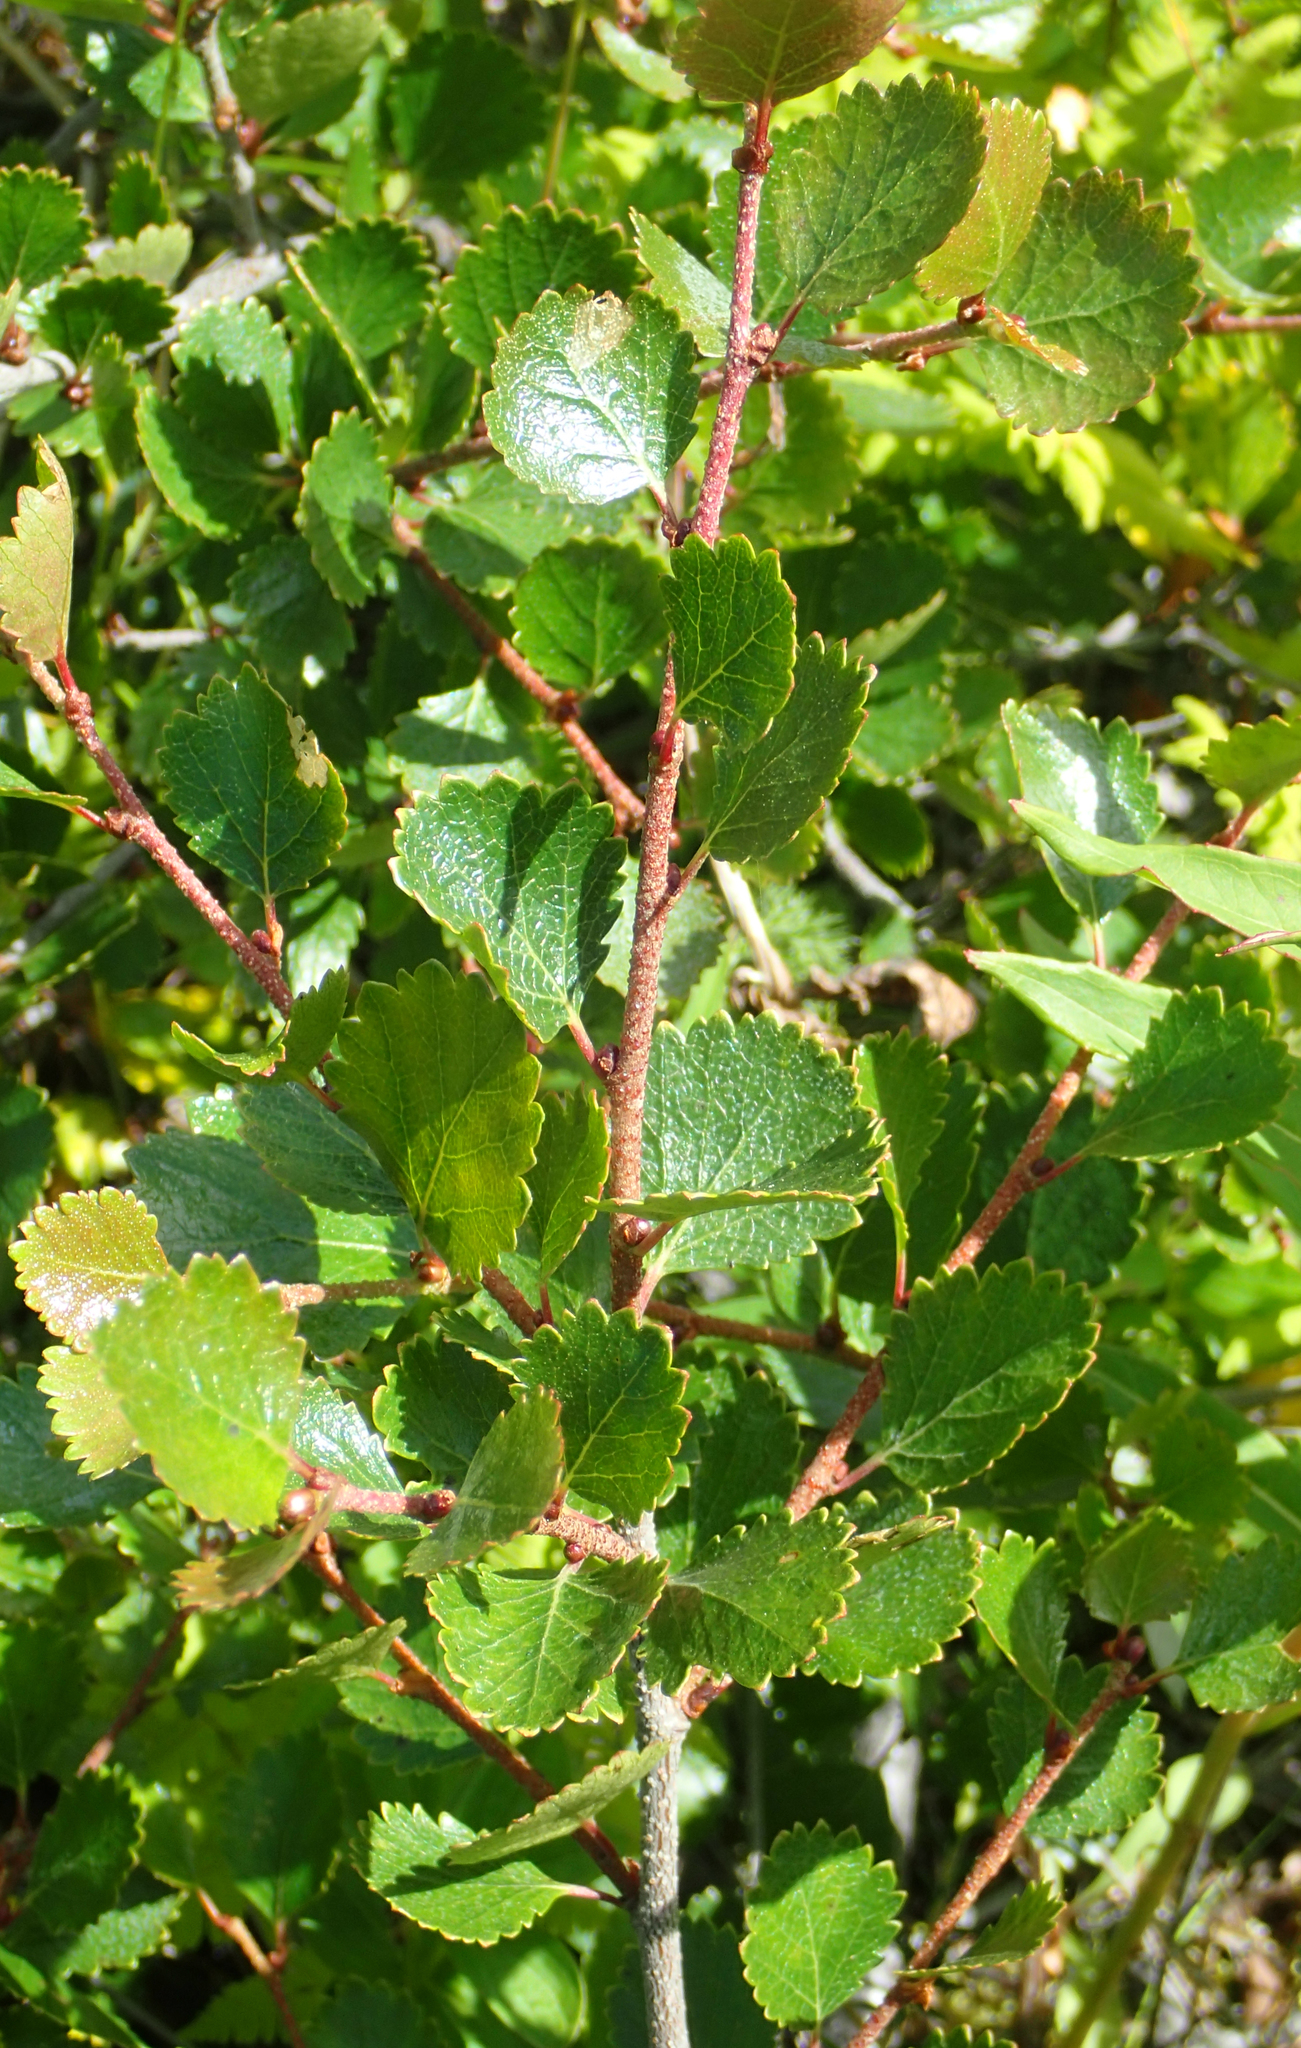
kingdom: Plantae
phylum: Tracheophyta
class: Magnoliopsida
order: Fagales
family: Betulaceae
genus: Betula
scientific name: Betula glandulosa
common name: Dwarf birch
